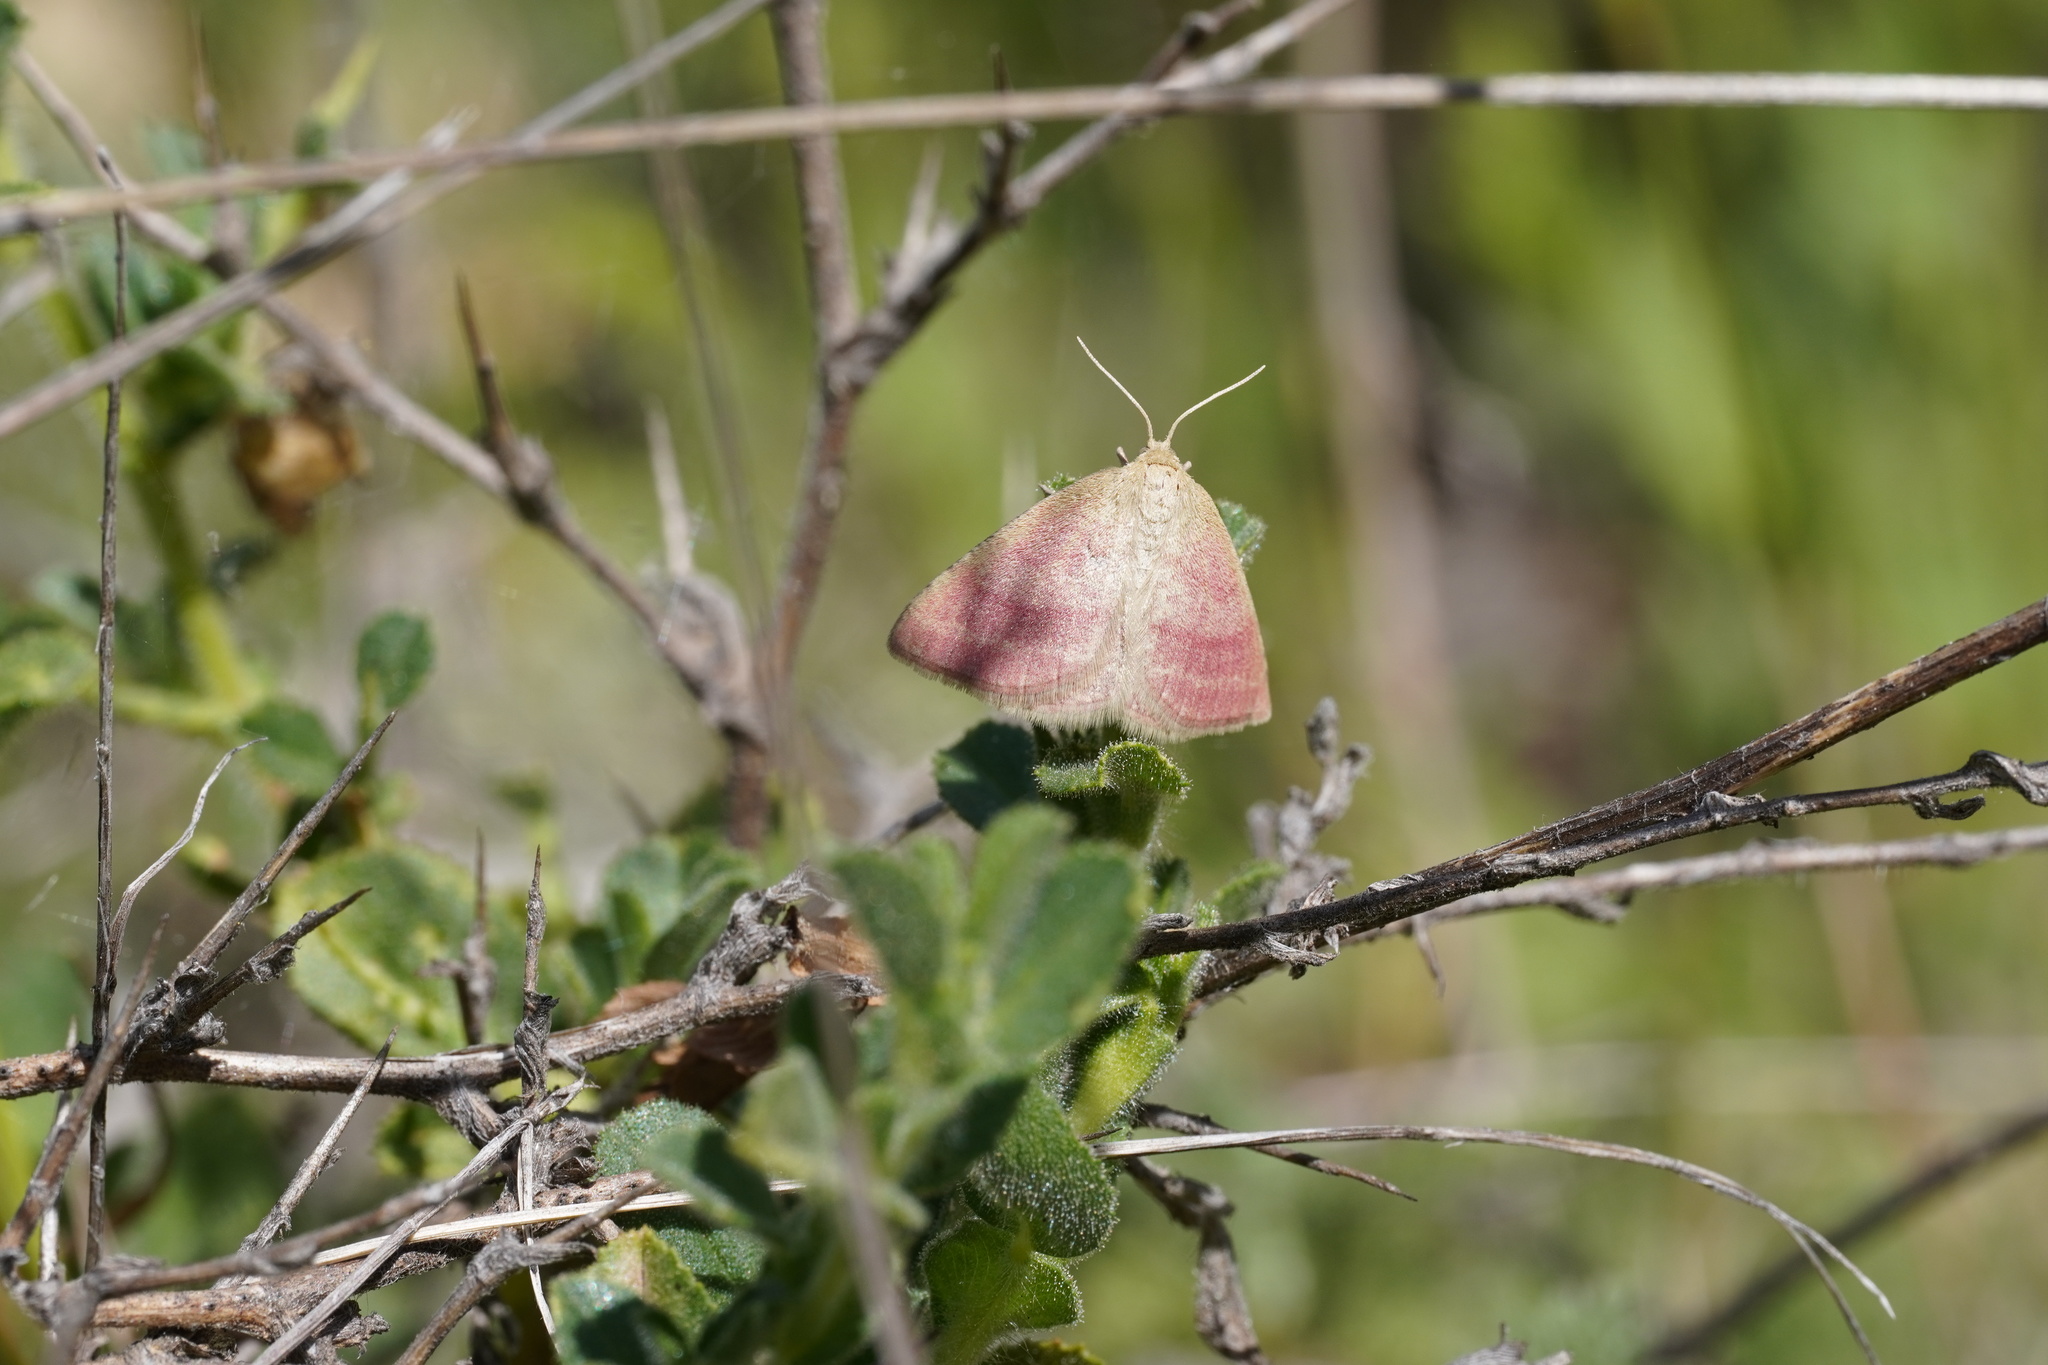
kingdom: Animalia
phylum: Arthropoda
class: Insecta
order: Lepidoptera
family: Erebidae
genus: Phytometra
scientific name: Phytometra viridaria
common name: Small purple-barred
